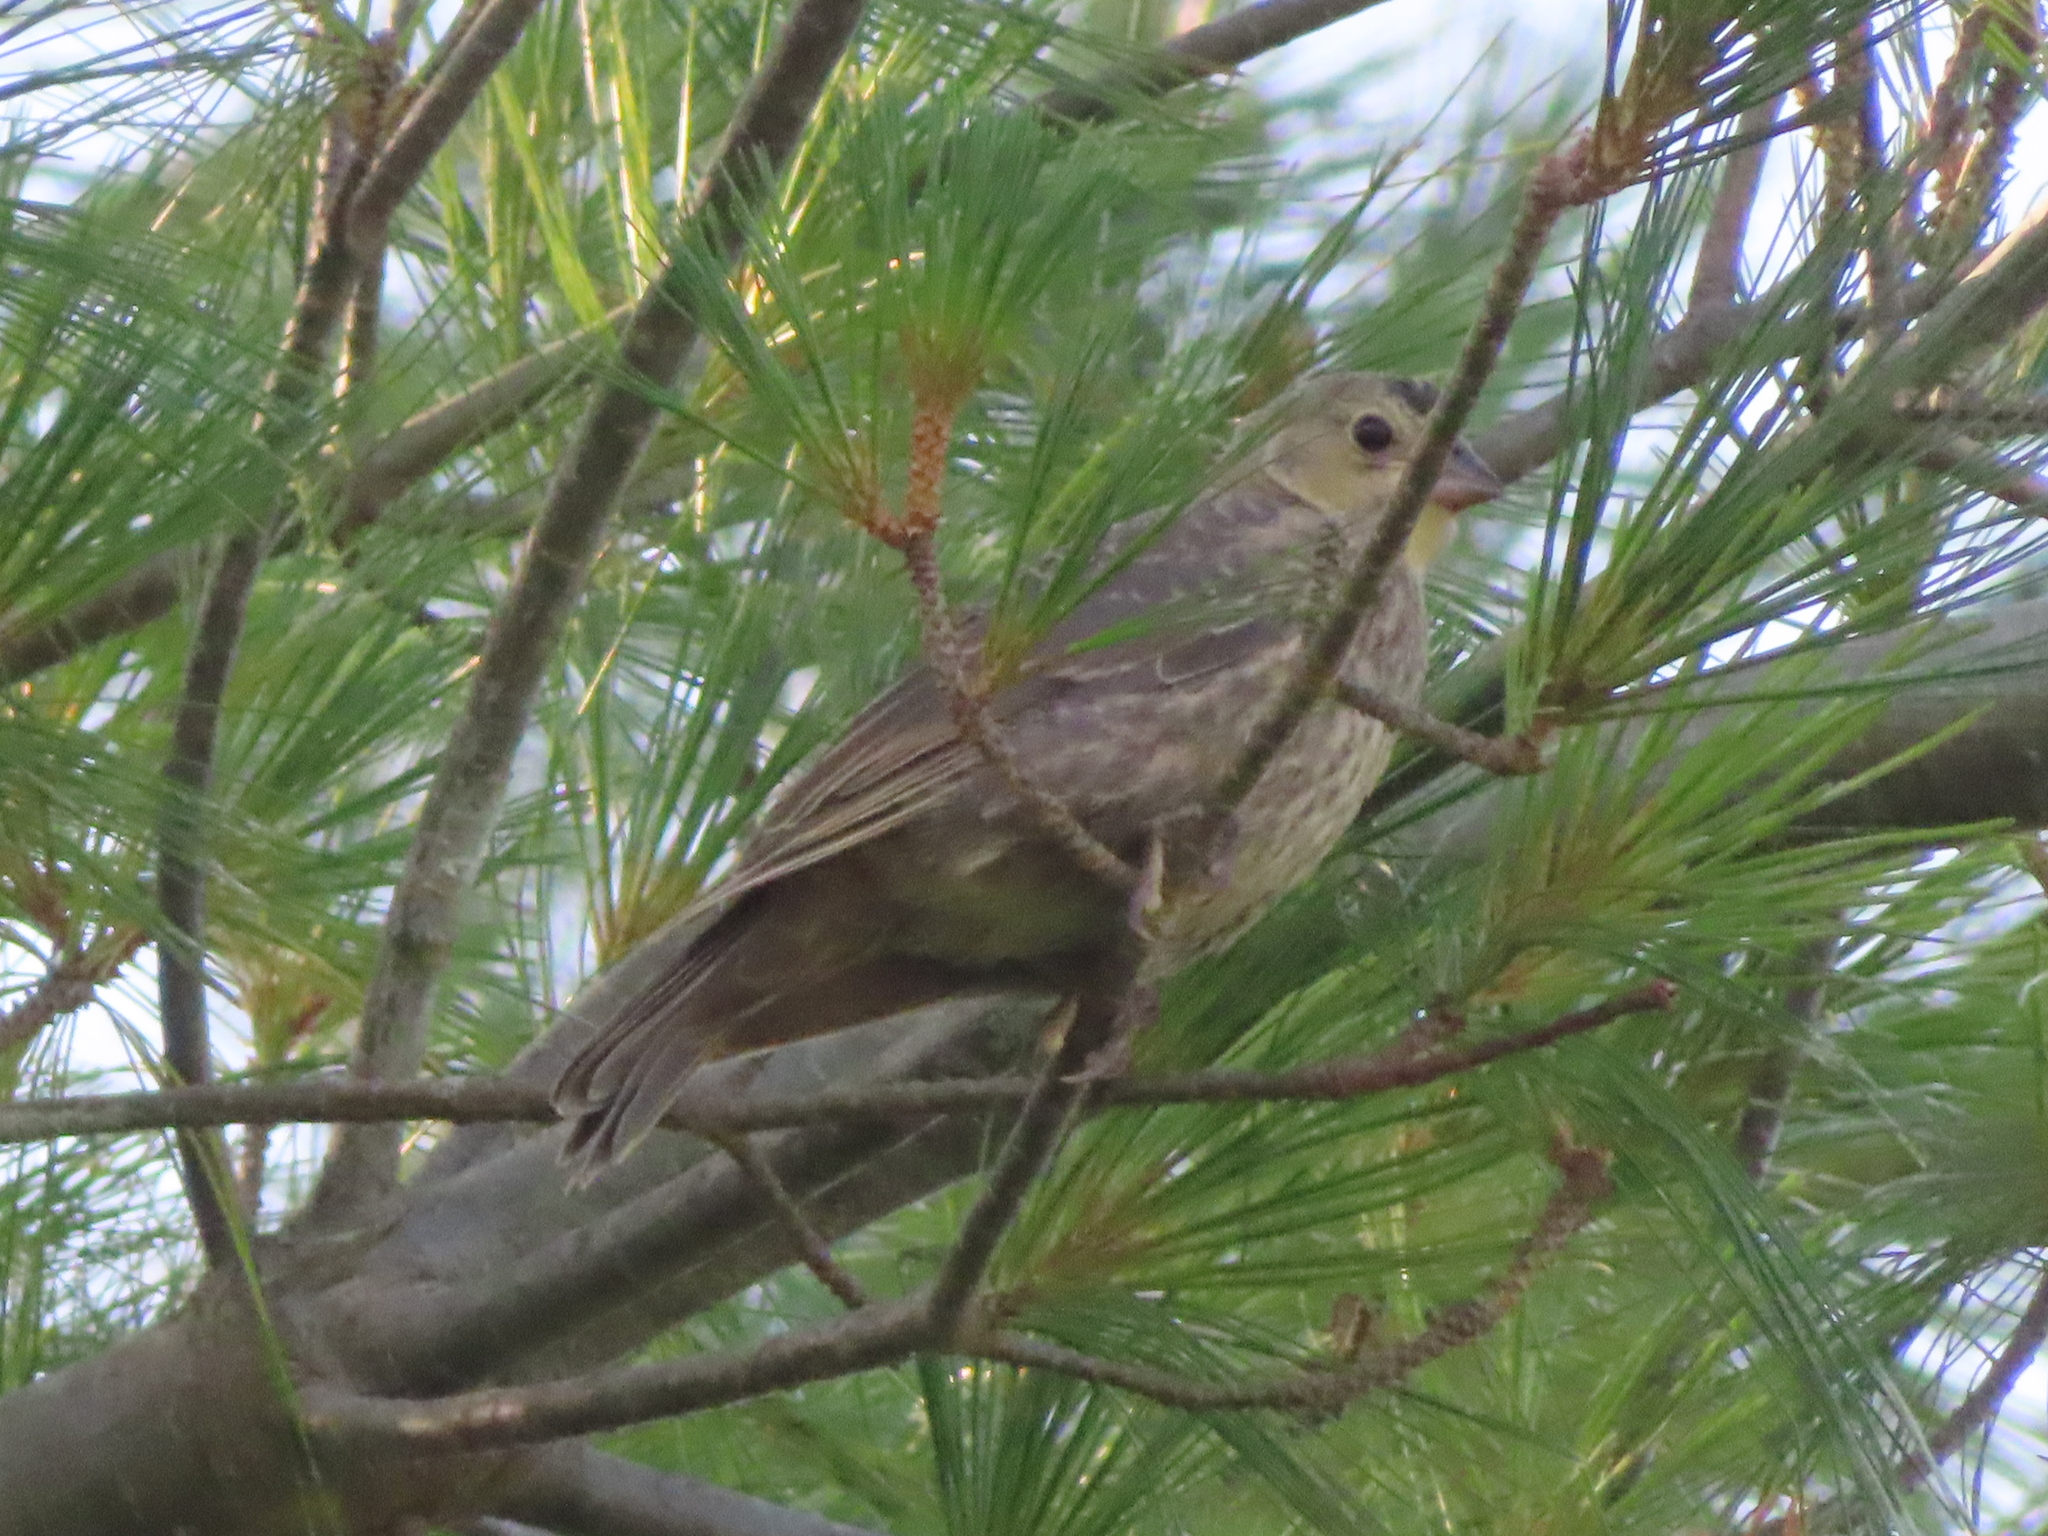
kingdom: Animalia
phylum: Chordata
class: Aves
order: Passeriformes
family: Icteridae
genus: Molothrus
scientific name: Molothrus ater
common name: Brown-headed cowbird
